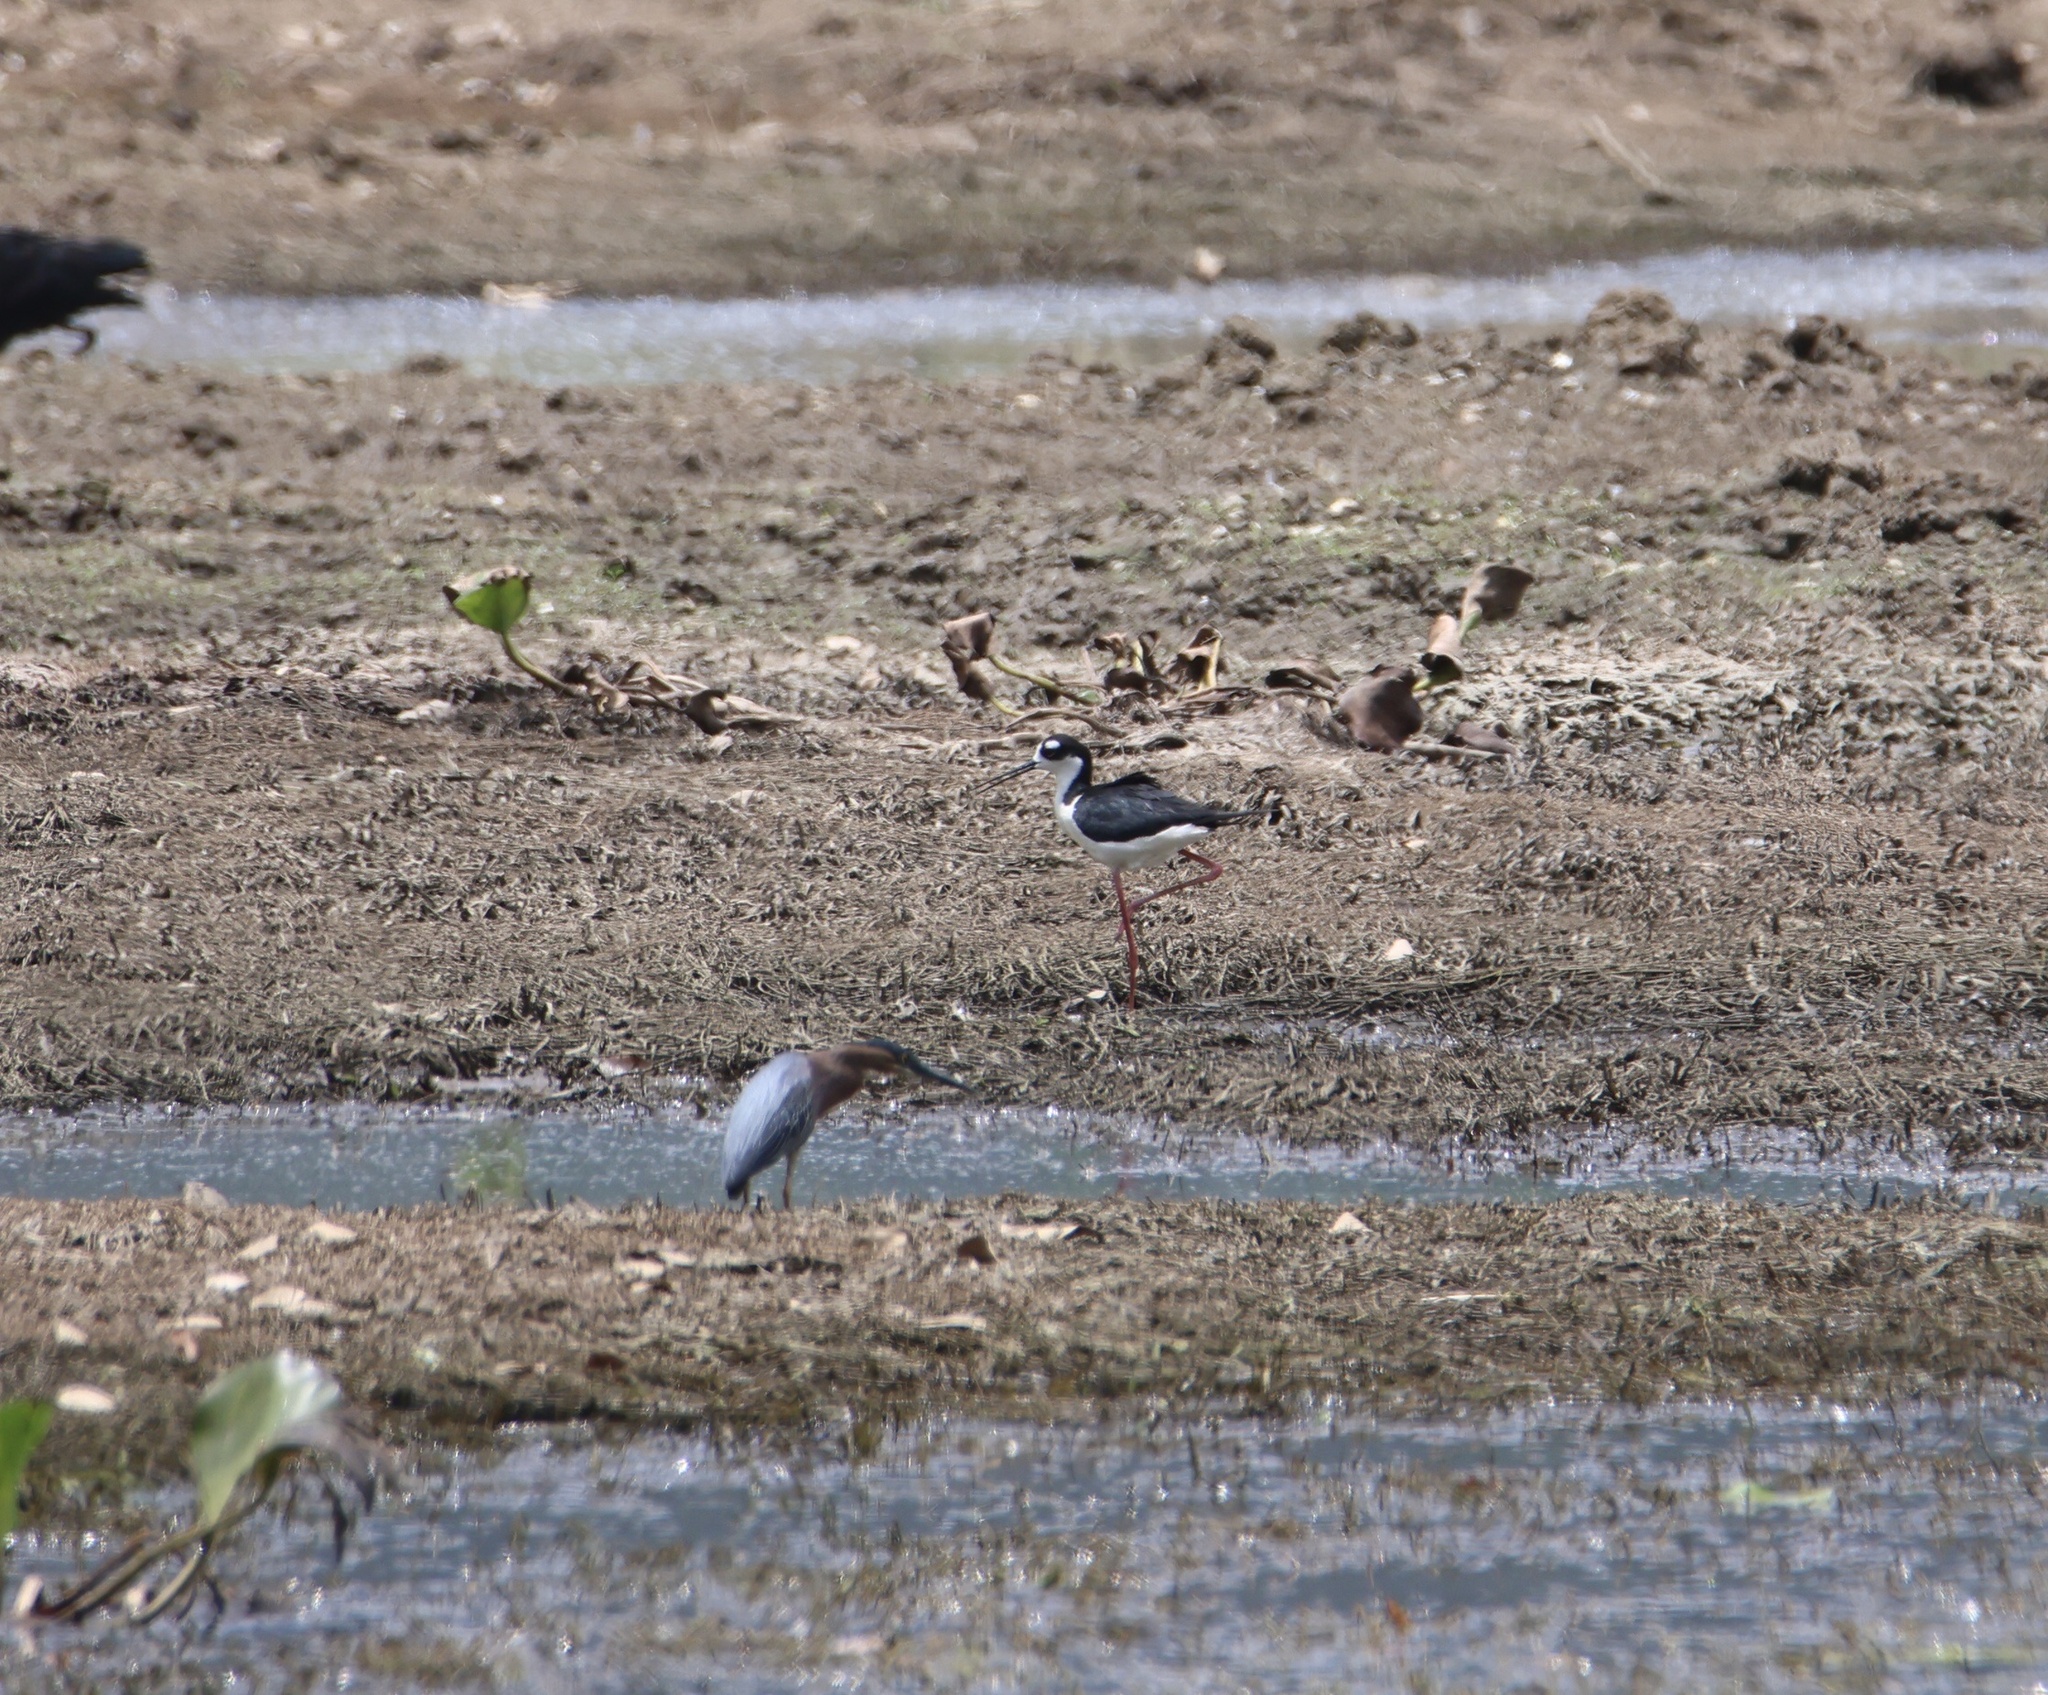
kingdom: Animalia
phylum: Chordata
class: Aves
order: Charadriiformes
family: Recurvirostridae
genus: Himantopus
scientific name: Himantopus mexicanus
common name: Black-necked stilt
